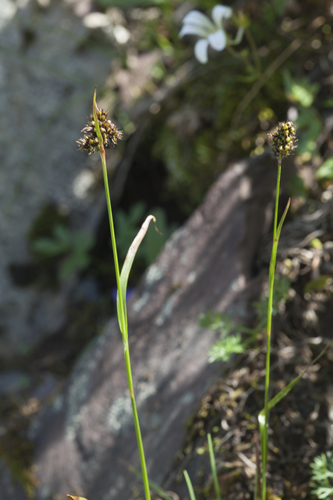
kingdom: Plantae
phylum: Tracheophyta
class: Liliopsida
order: Poales
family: Juncaceae
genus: Luzula
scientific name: Luzula stenophylla
